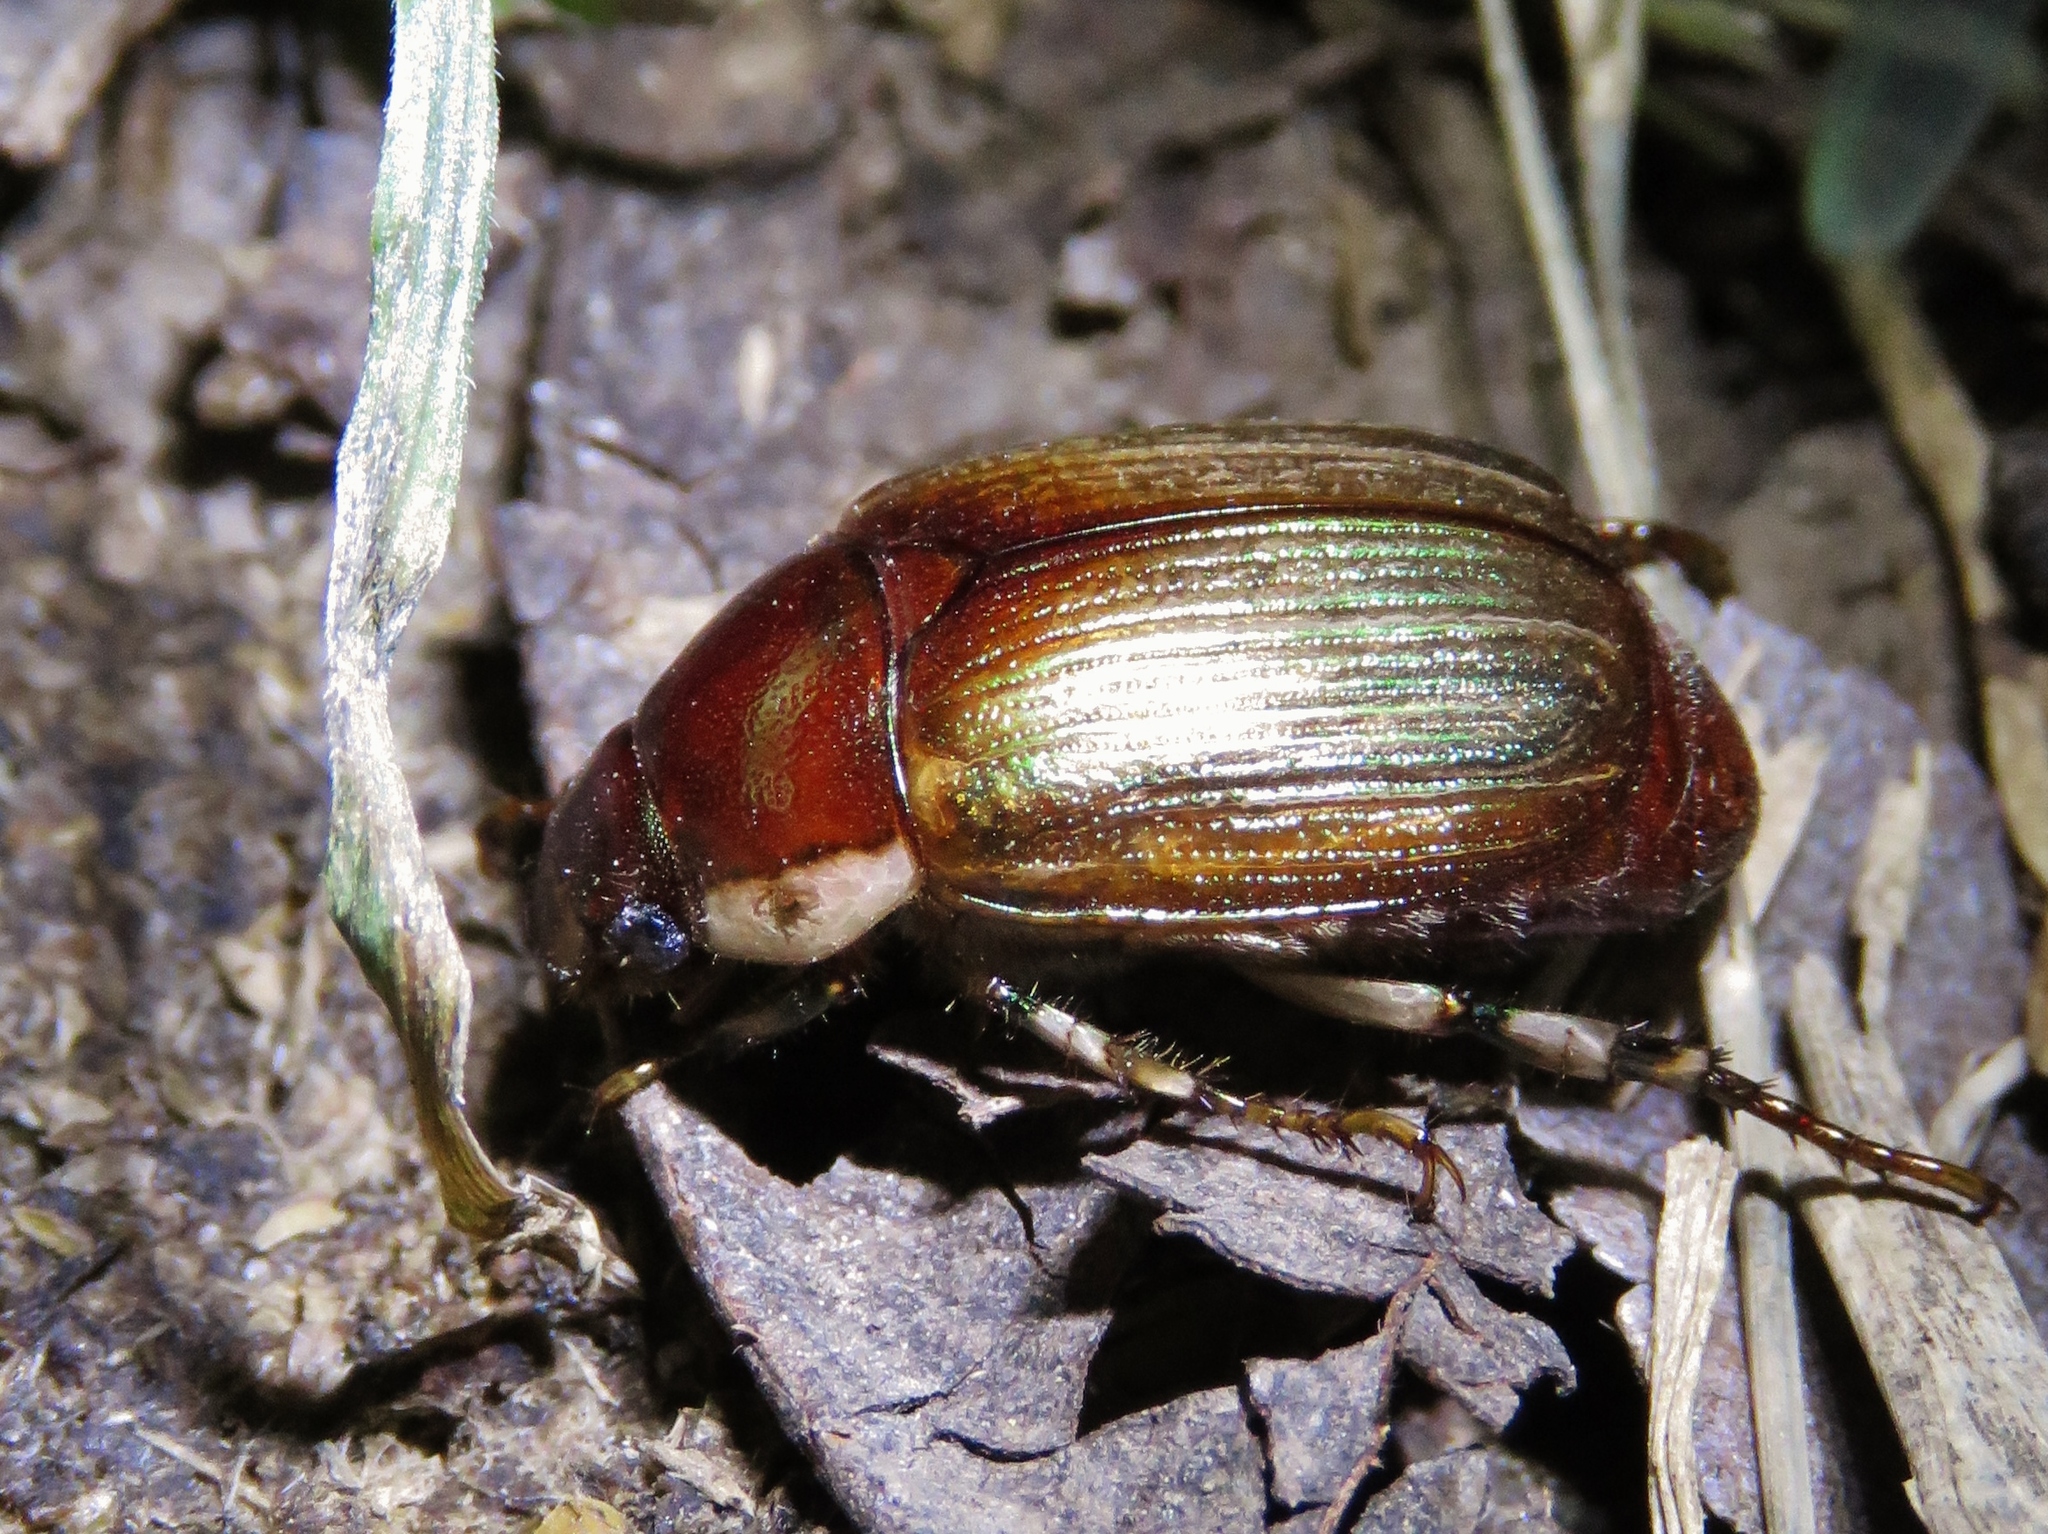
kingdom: Animalia
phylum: Arthropoda
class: Insecta
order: Coleoptera
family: Scarabaeidae
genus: Callistethus
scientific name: Callistethus marginatus
